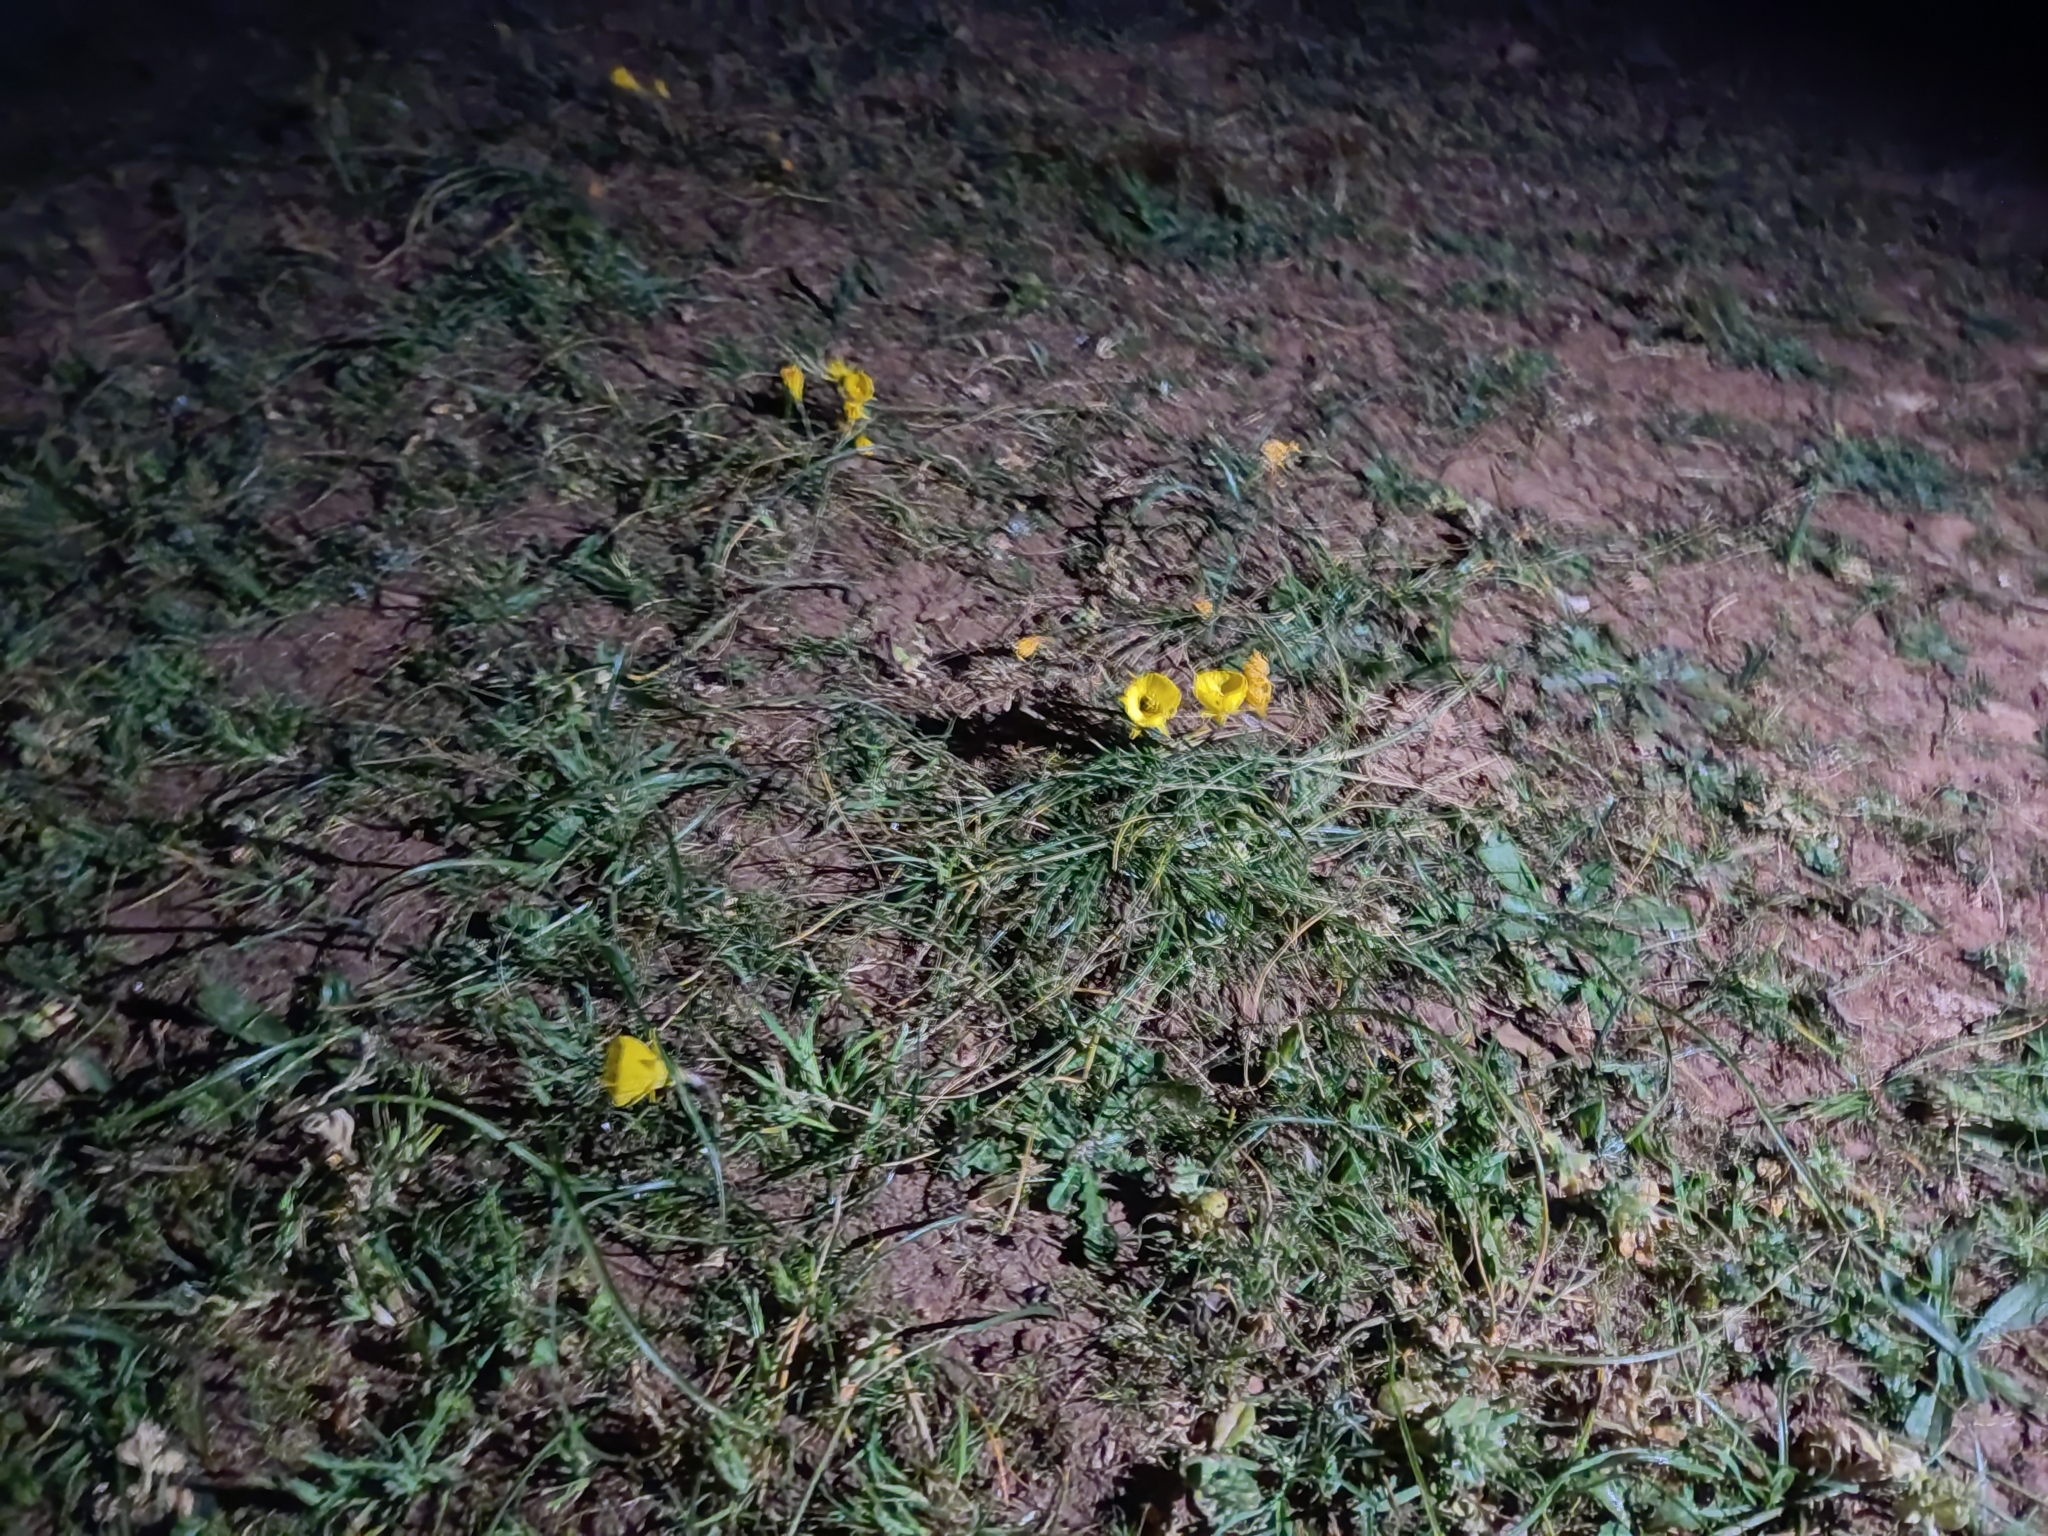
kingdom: Plantae
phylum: Tracheophyta
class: Liliopsida
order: Asparagales
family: Amaryllidaceae
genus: Narcissus
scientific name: Narcissus obesus
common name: Hoop petticoat daffodil
